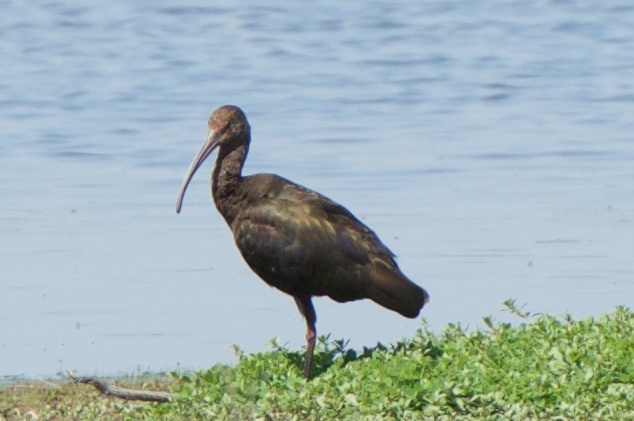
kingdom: Animalia
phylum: Chordata
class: Aves
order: Pelecaniformes
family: Threskiornithidae
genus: Plegadis
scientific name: Plegadis chihi
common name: White-faced ibis
